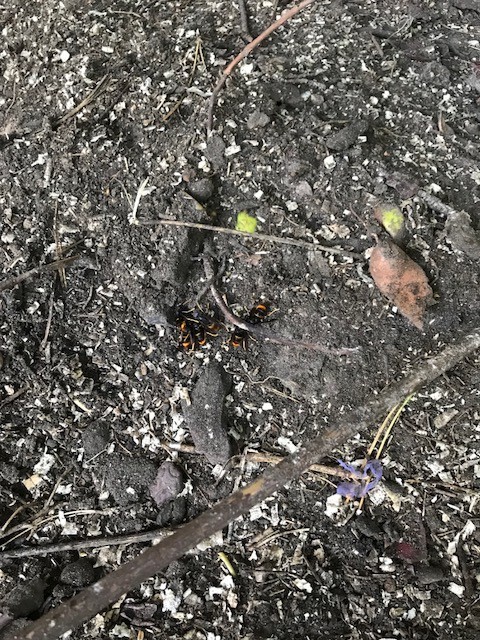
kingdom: Animalia
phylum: Arthropoda
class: Insecta
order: Hymenoptera
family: Vespidae
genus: Vespa
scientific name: Vespa velutina
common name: Asian hornet
